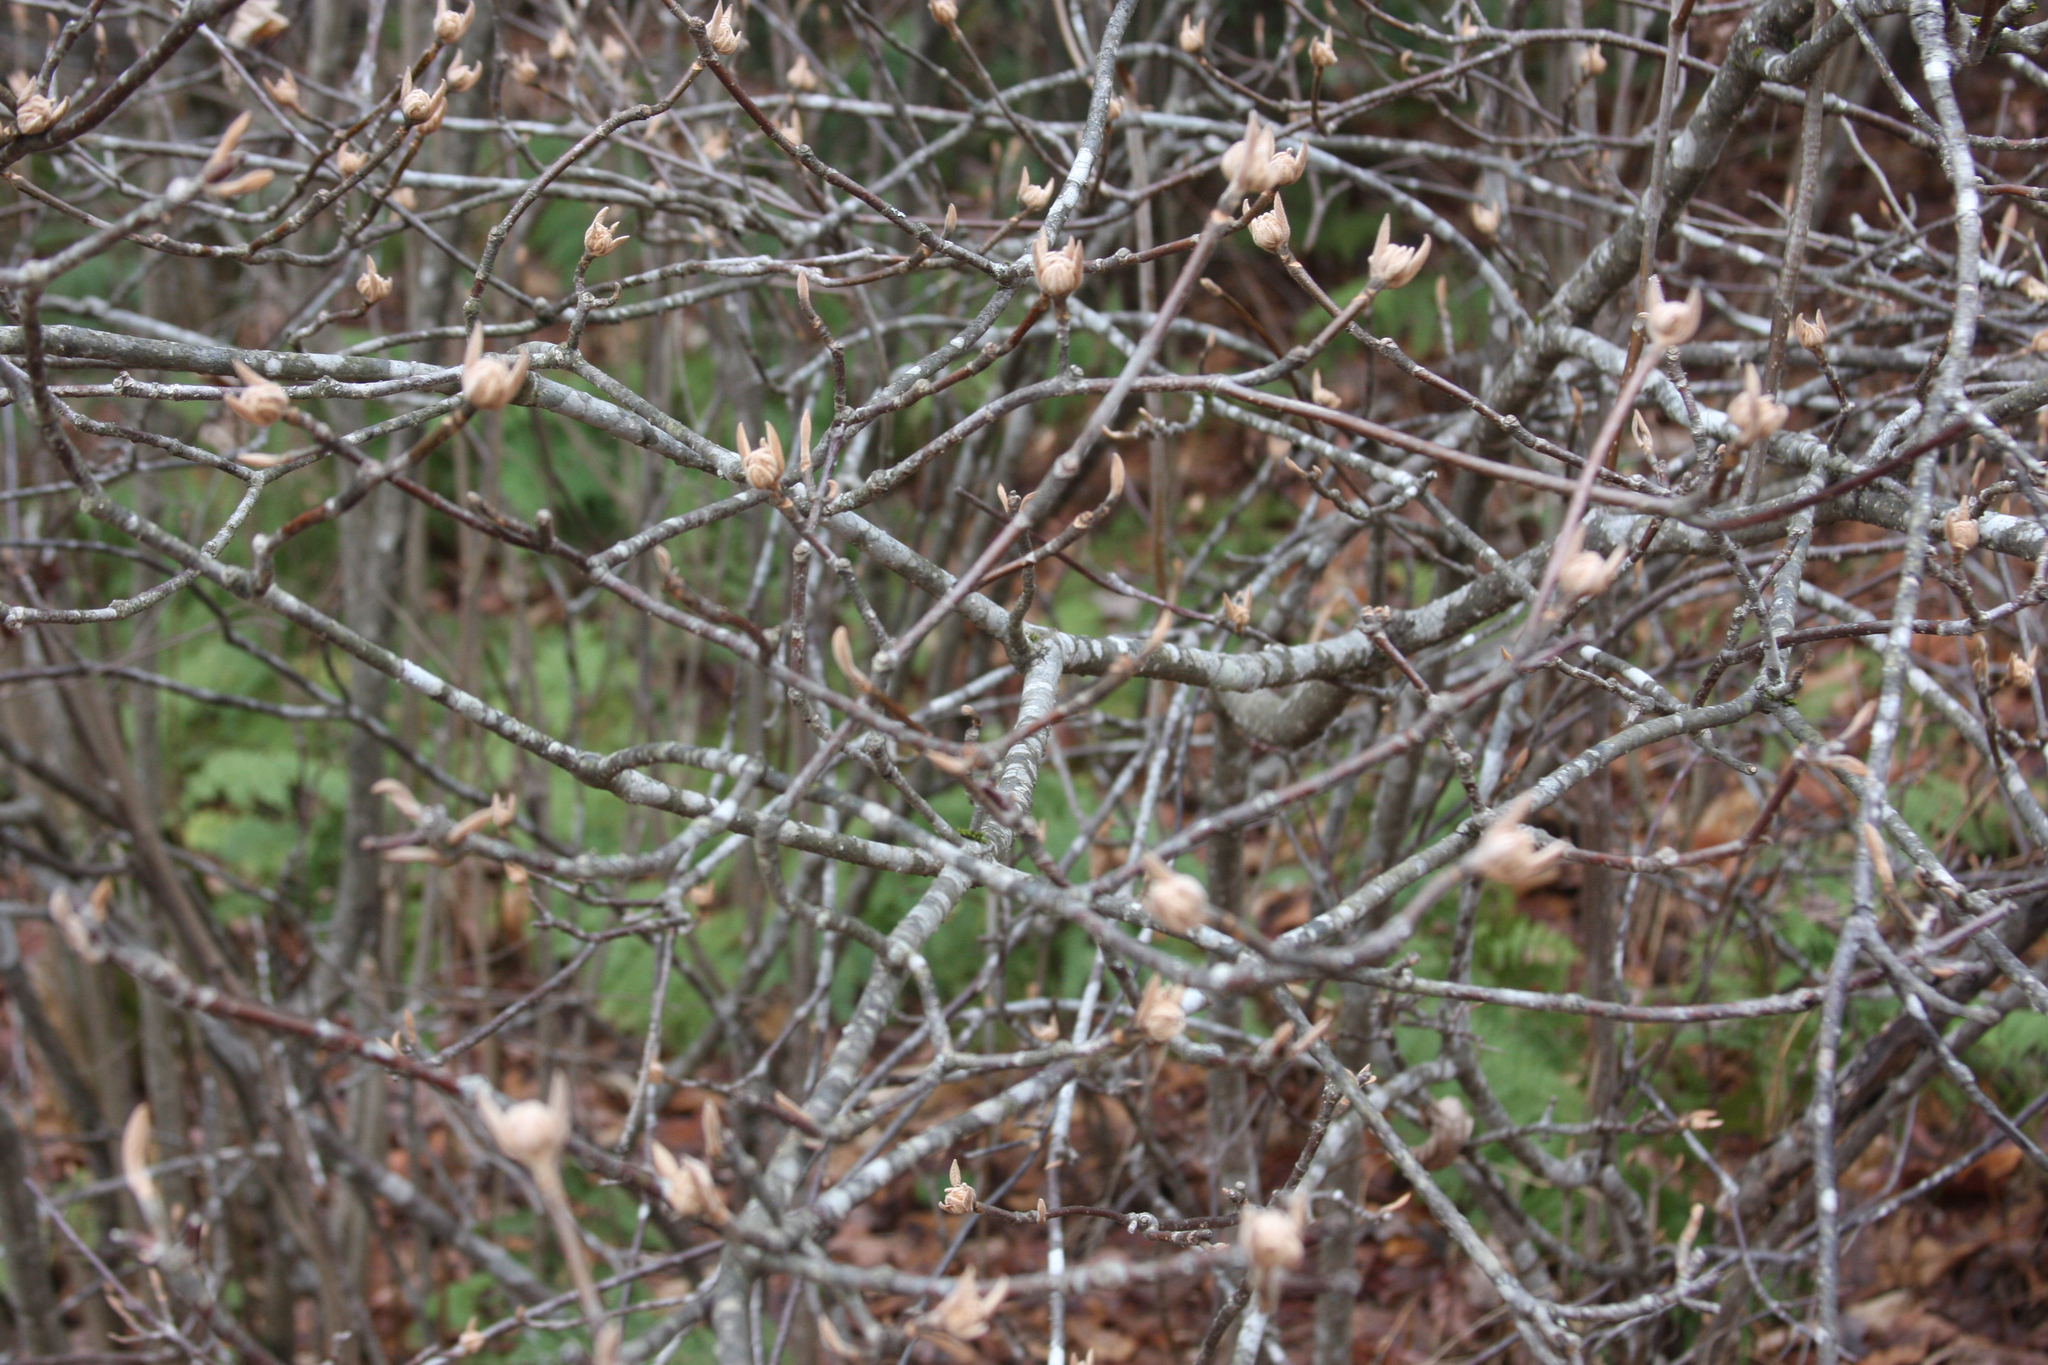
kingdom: Plantae
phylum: Tracheophyta
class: Magnoliopsida
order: Dipsacales
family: Viburnaceae
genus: Viburnum
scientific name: Viburnum lantanoides
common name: Hobblebush
